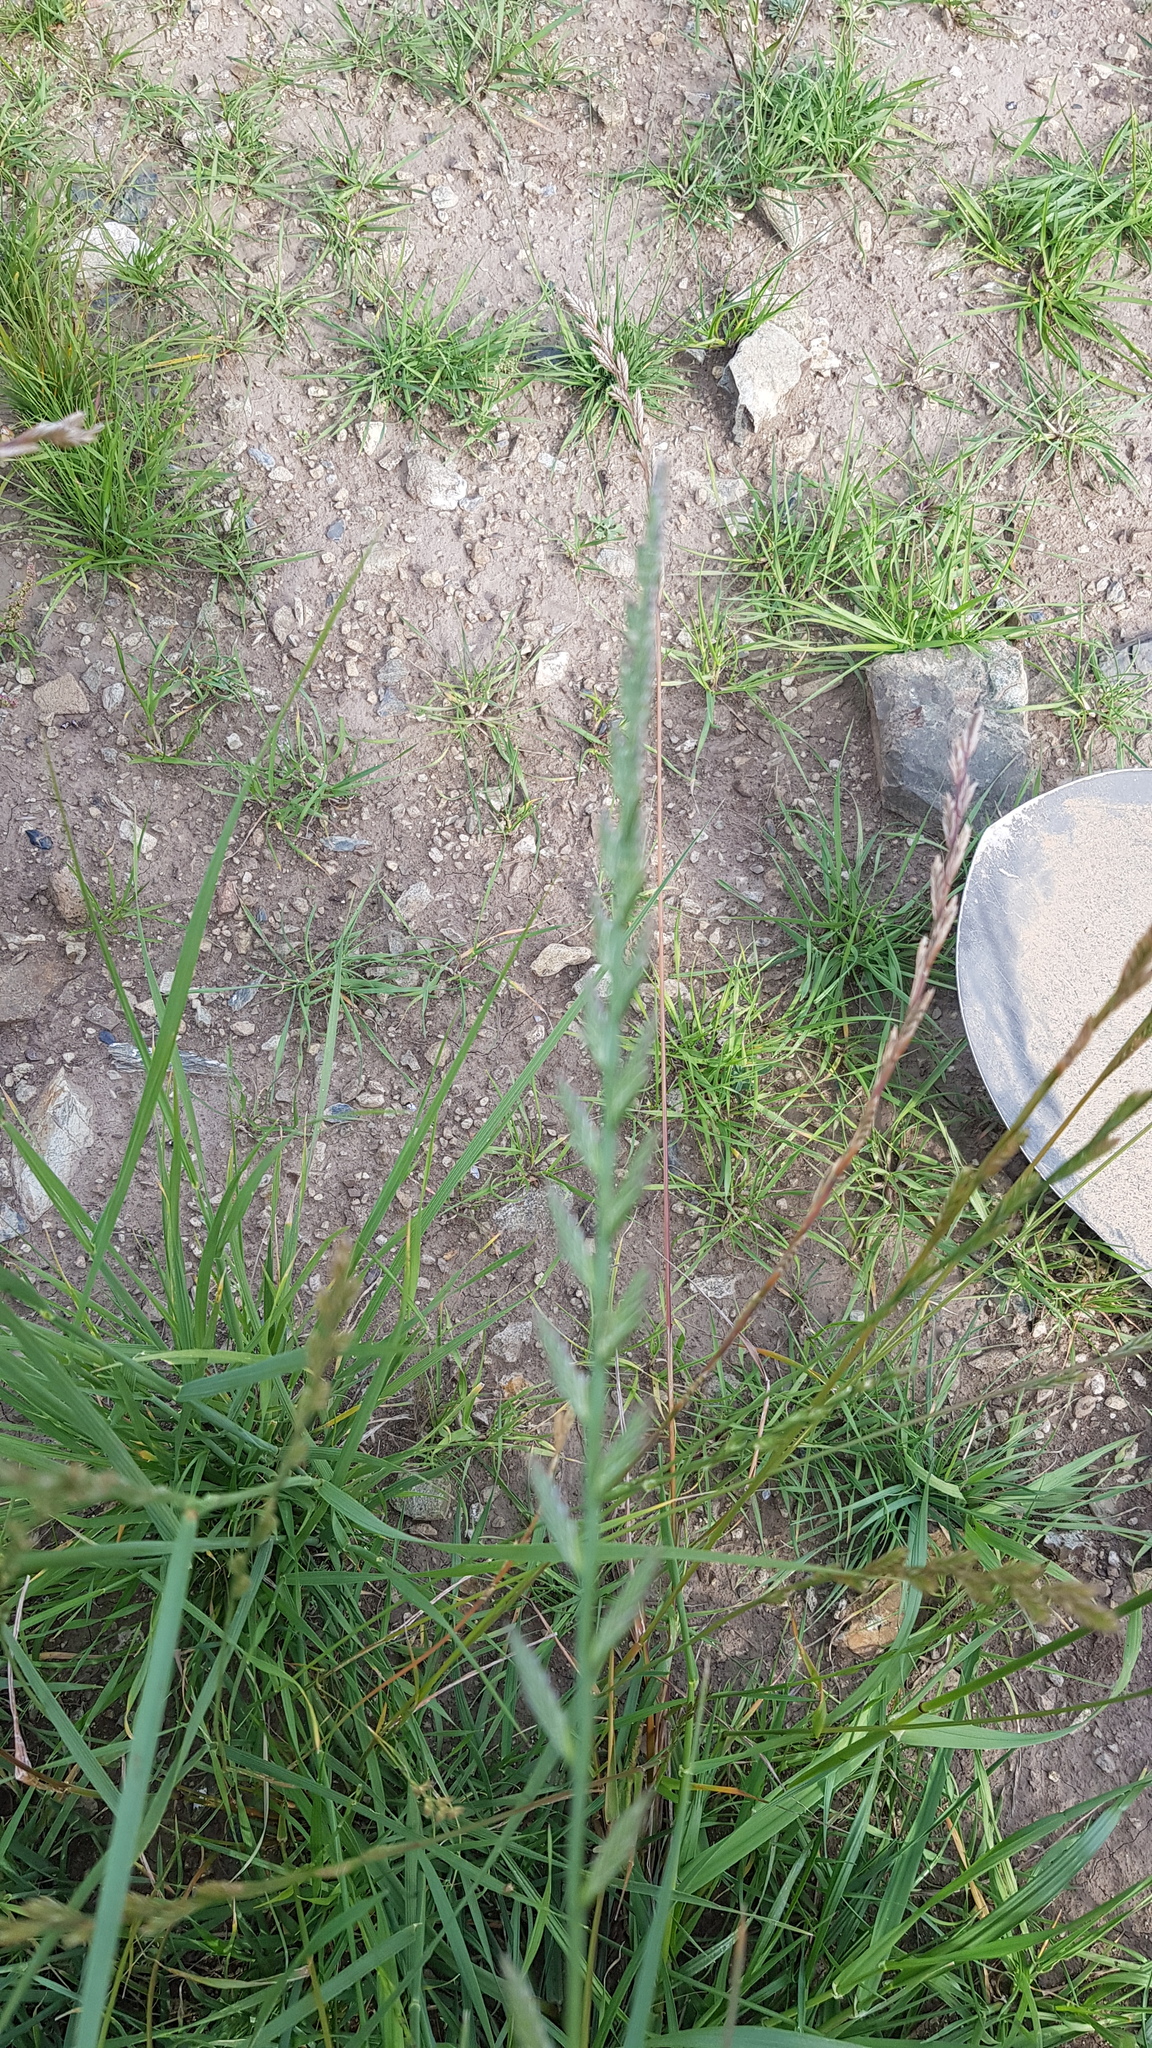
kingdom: Plantae
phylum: Tracheophyta
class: Liliopsida
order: Poales
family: Poaceae
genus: Lolium
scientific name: Lolium perenne
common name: Perennial ryegrass
